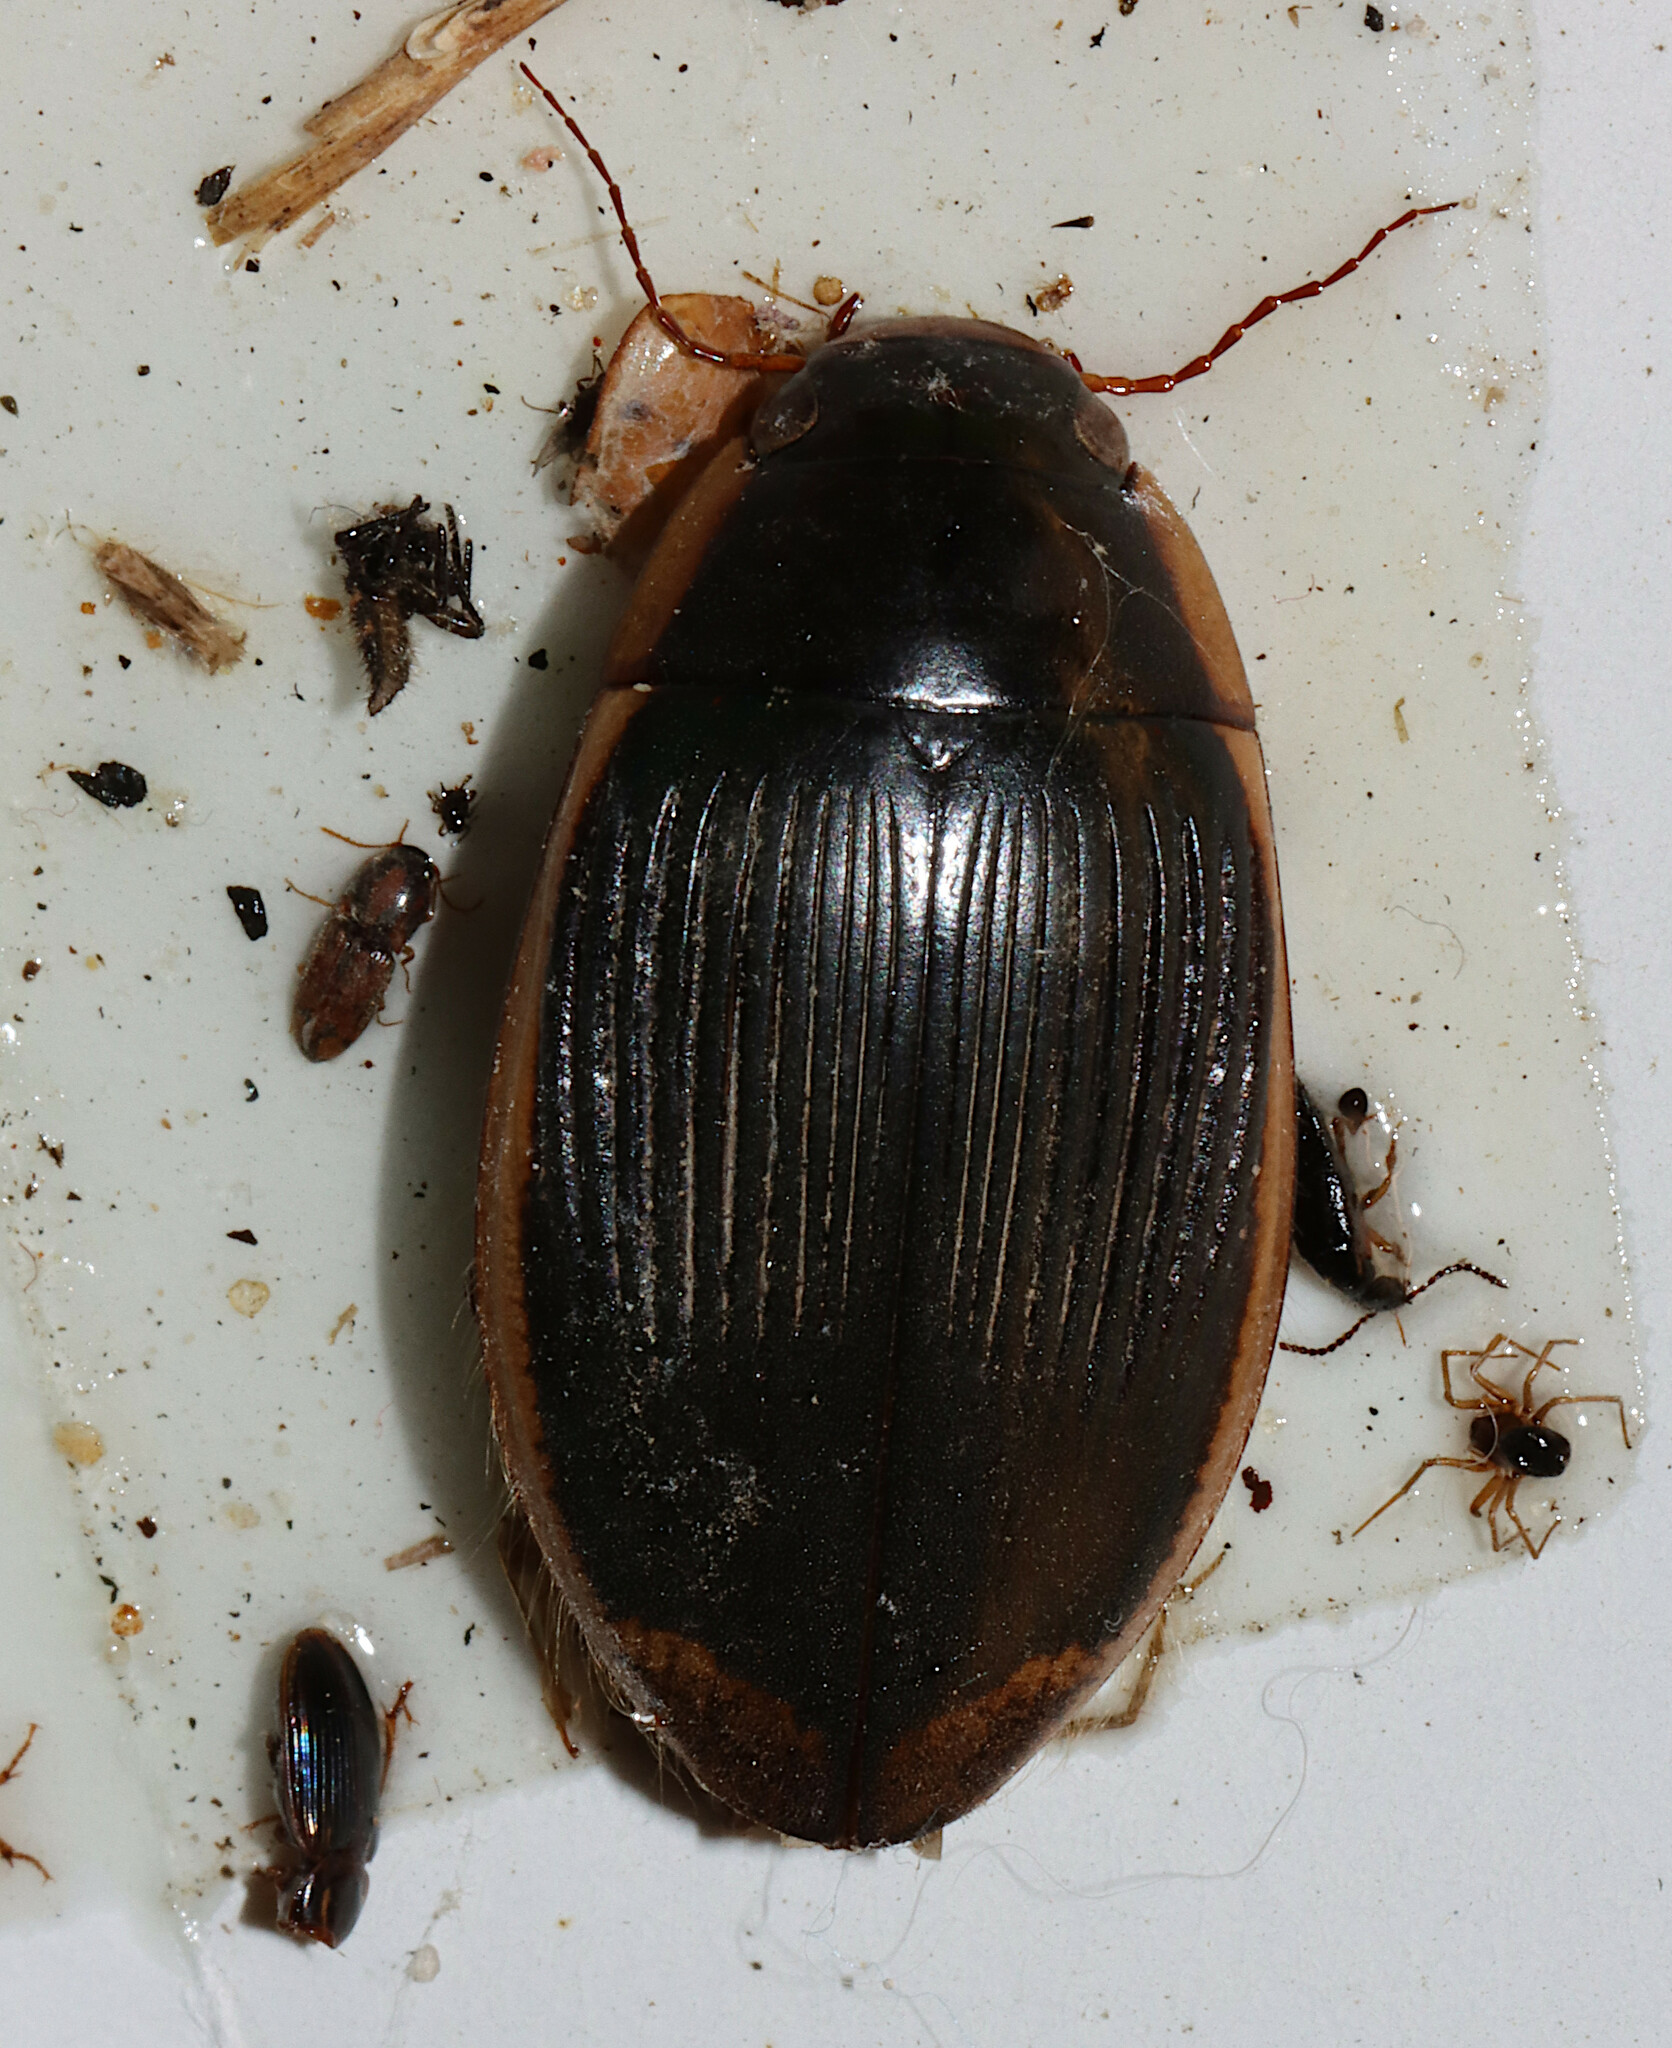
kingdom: Animalia
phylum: Arthropoda
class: Insecta
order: Coleoptera
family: Dytiscidae
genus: Dytiscus
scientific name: Dytiscus carolinus
